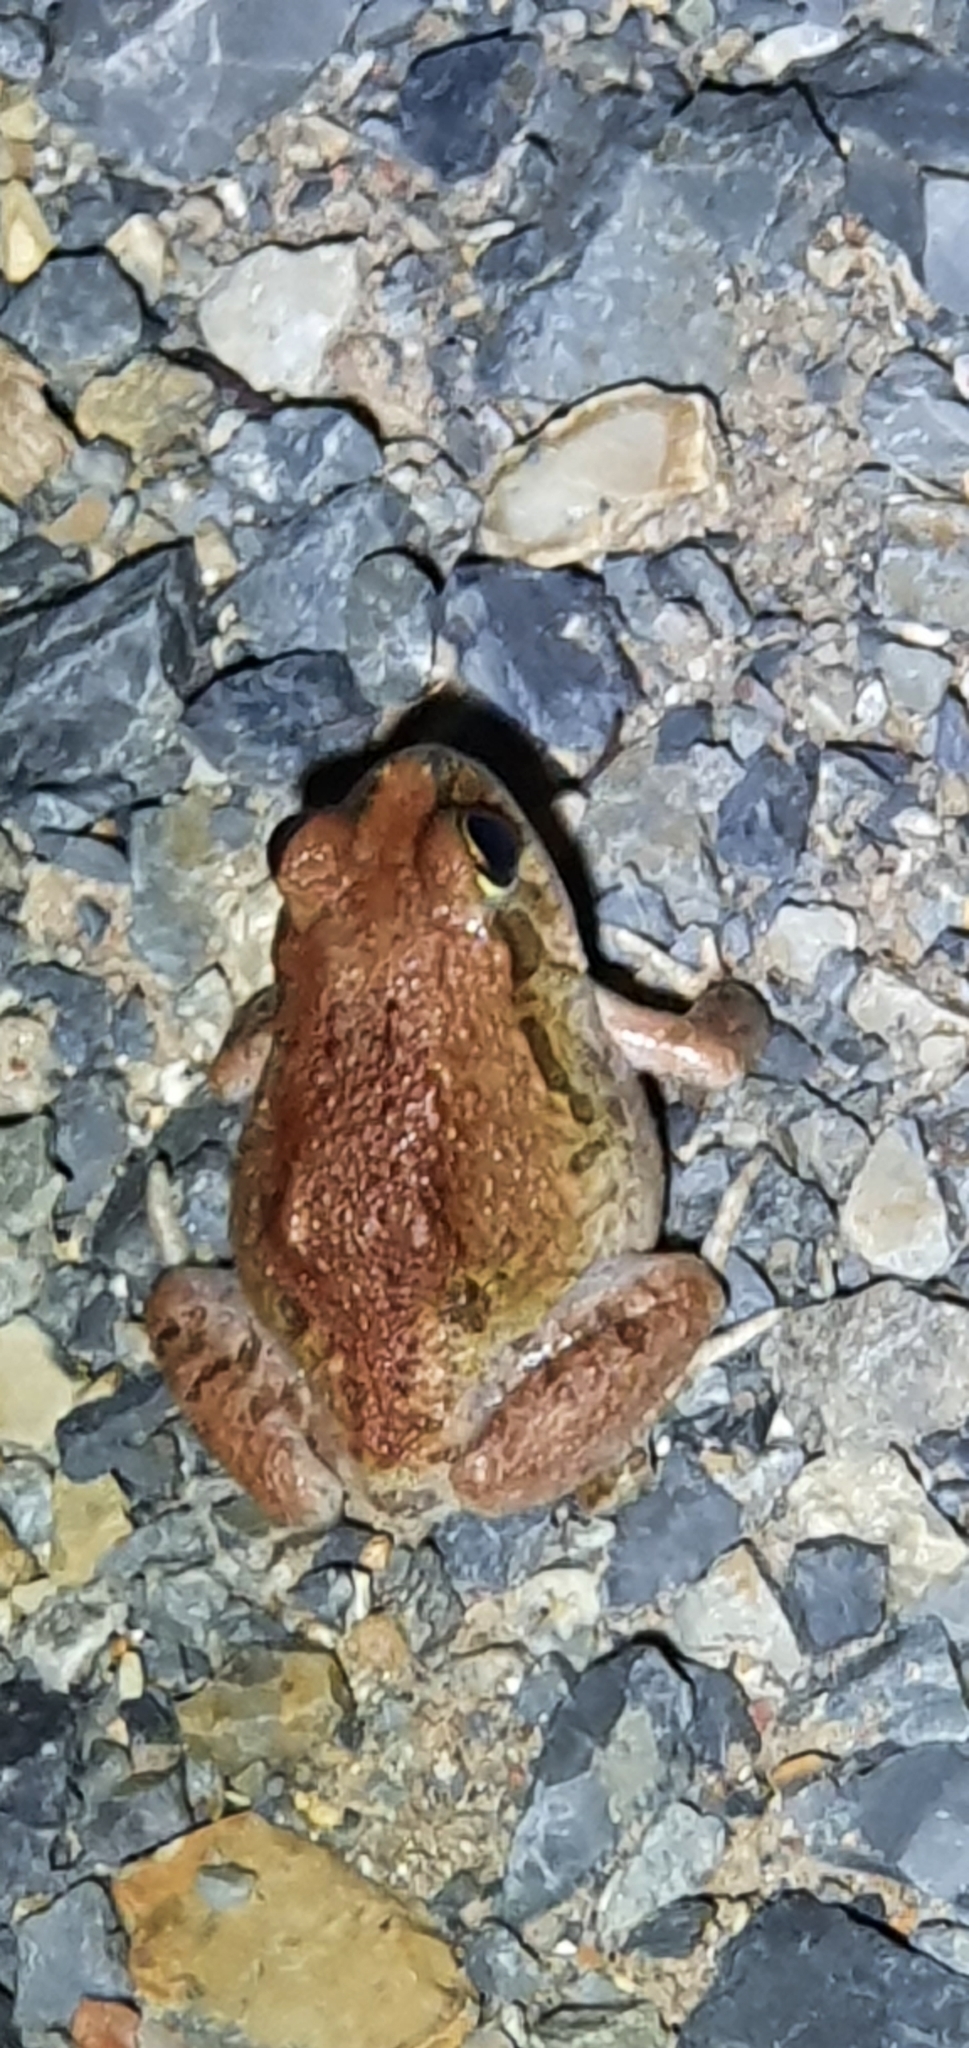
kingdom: Animalia
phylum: Chordata
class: Amphibia
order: Anura
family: Limnodynastidae
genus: Platyplectrum
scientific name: Platyplectrum ornatum
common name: Ornate burrowing frog
